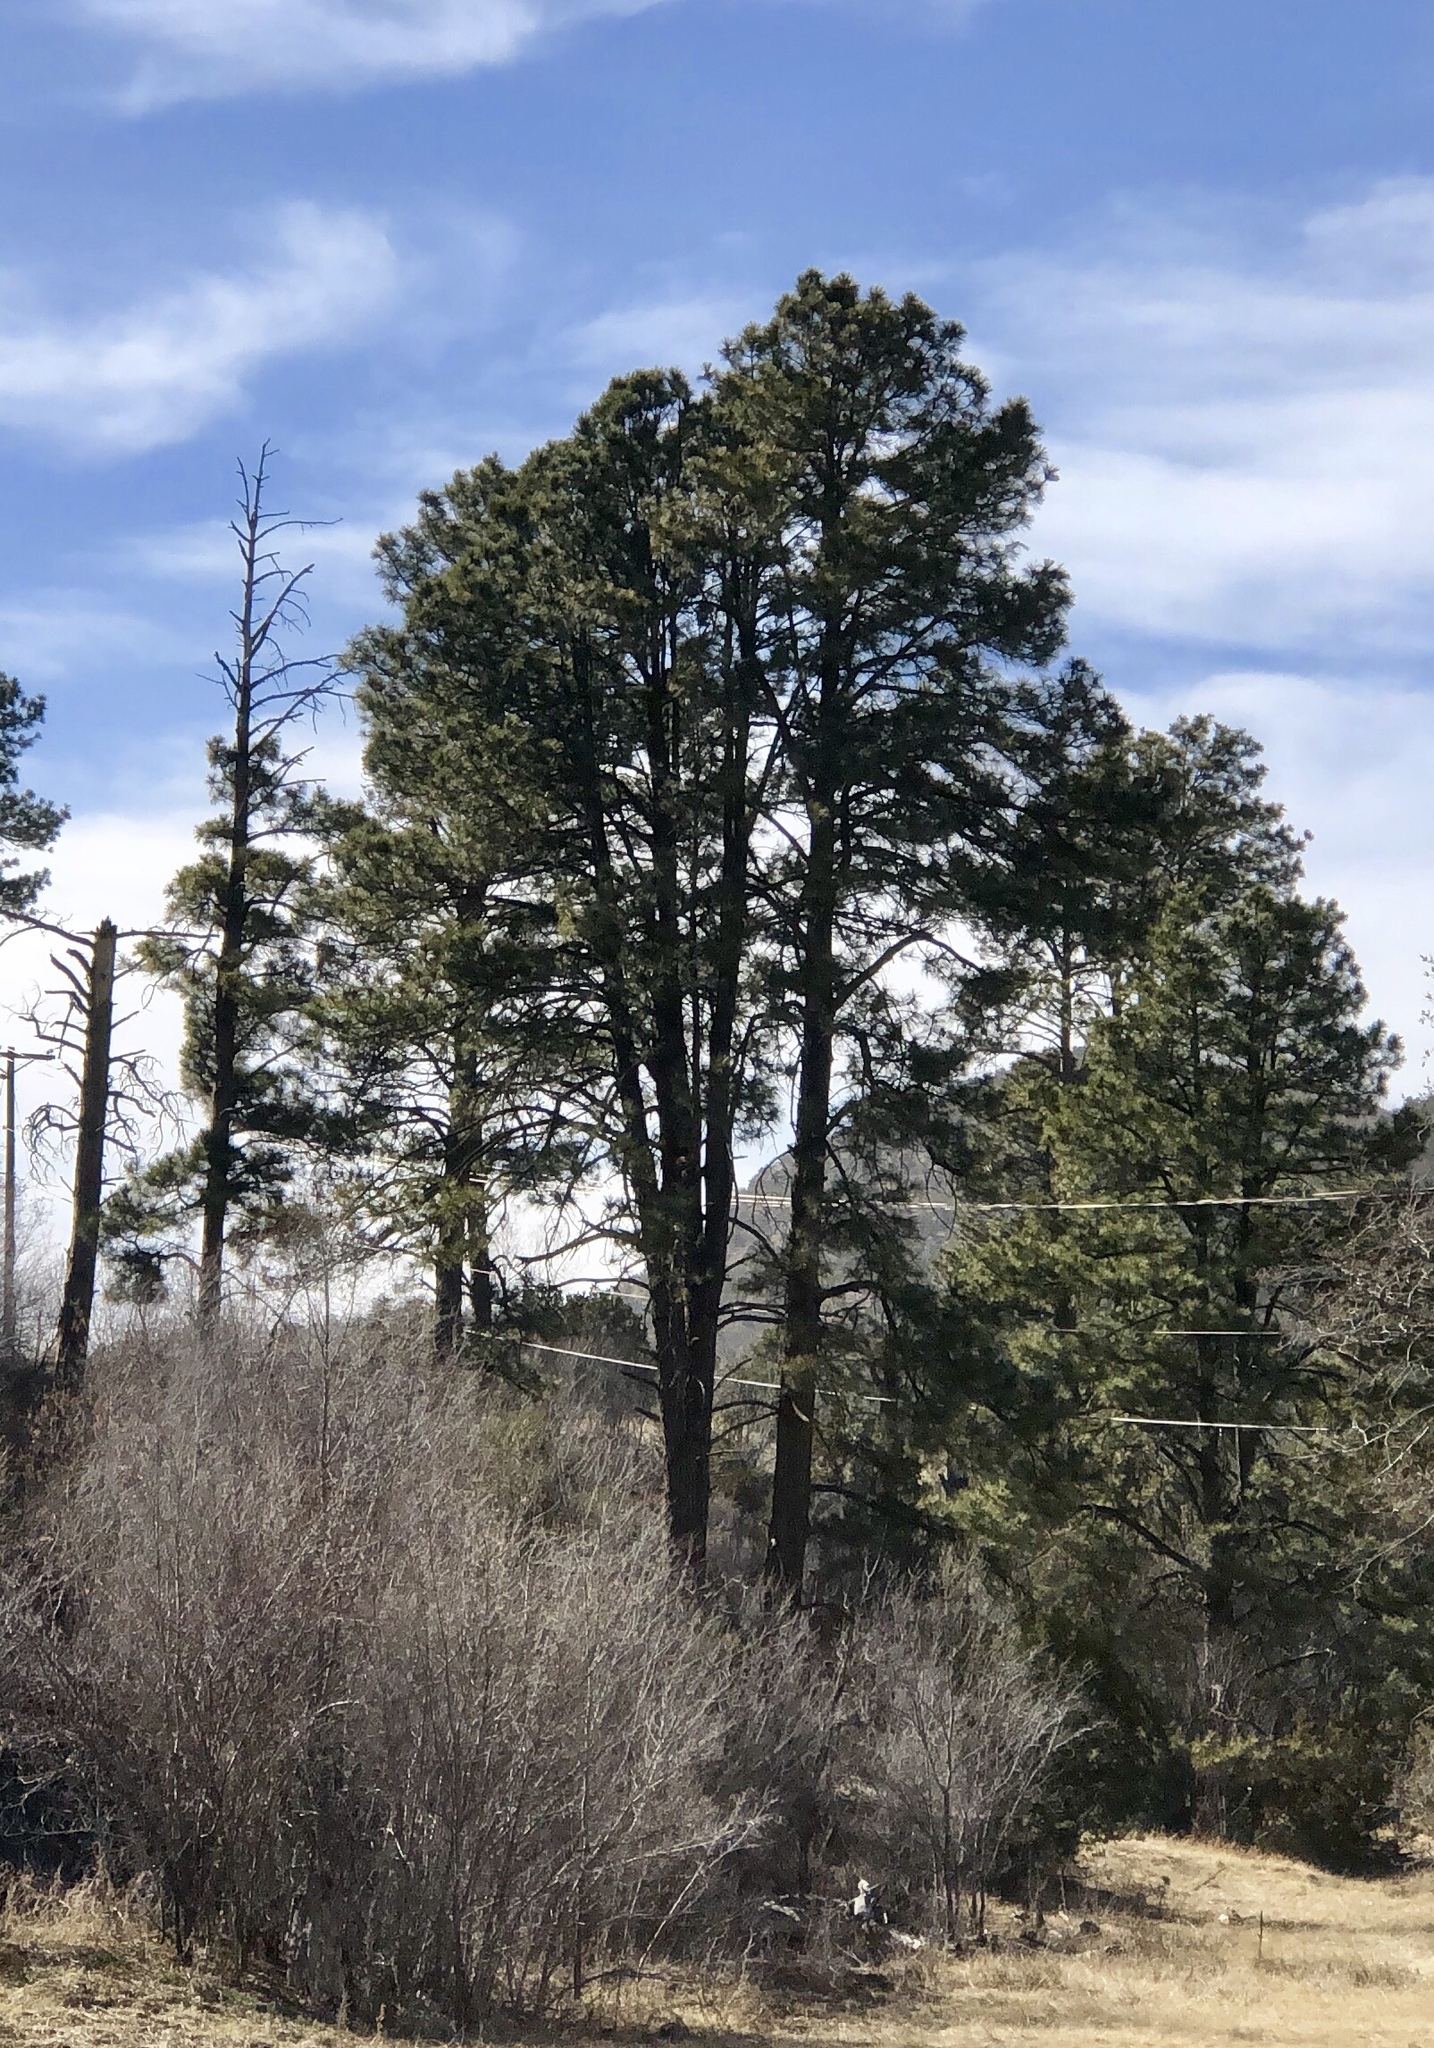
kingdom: Plantae
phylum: Tracheophyta
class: Pinopsida
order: Pinales
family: Pinaceae
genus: Pinus
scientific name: Pinus ponderosa
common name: Western yellow-pine
